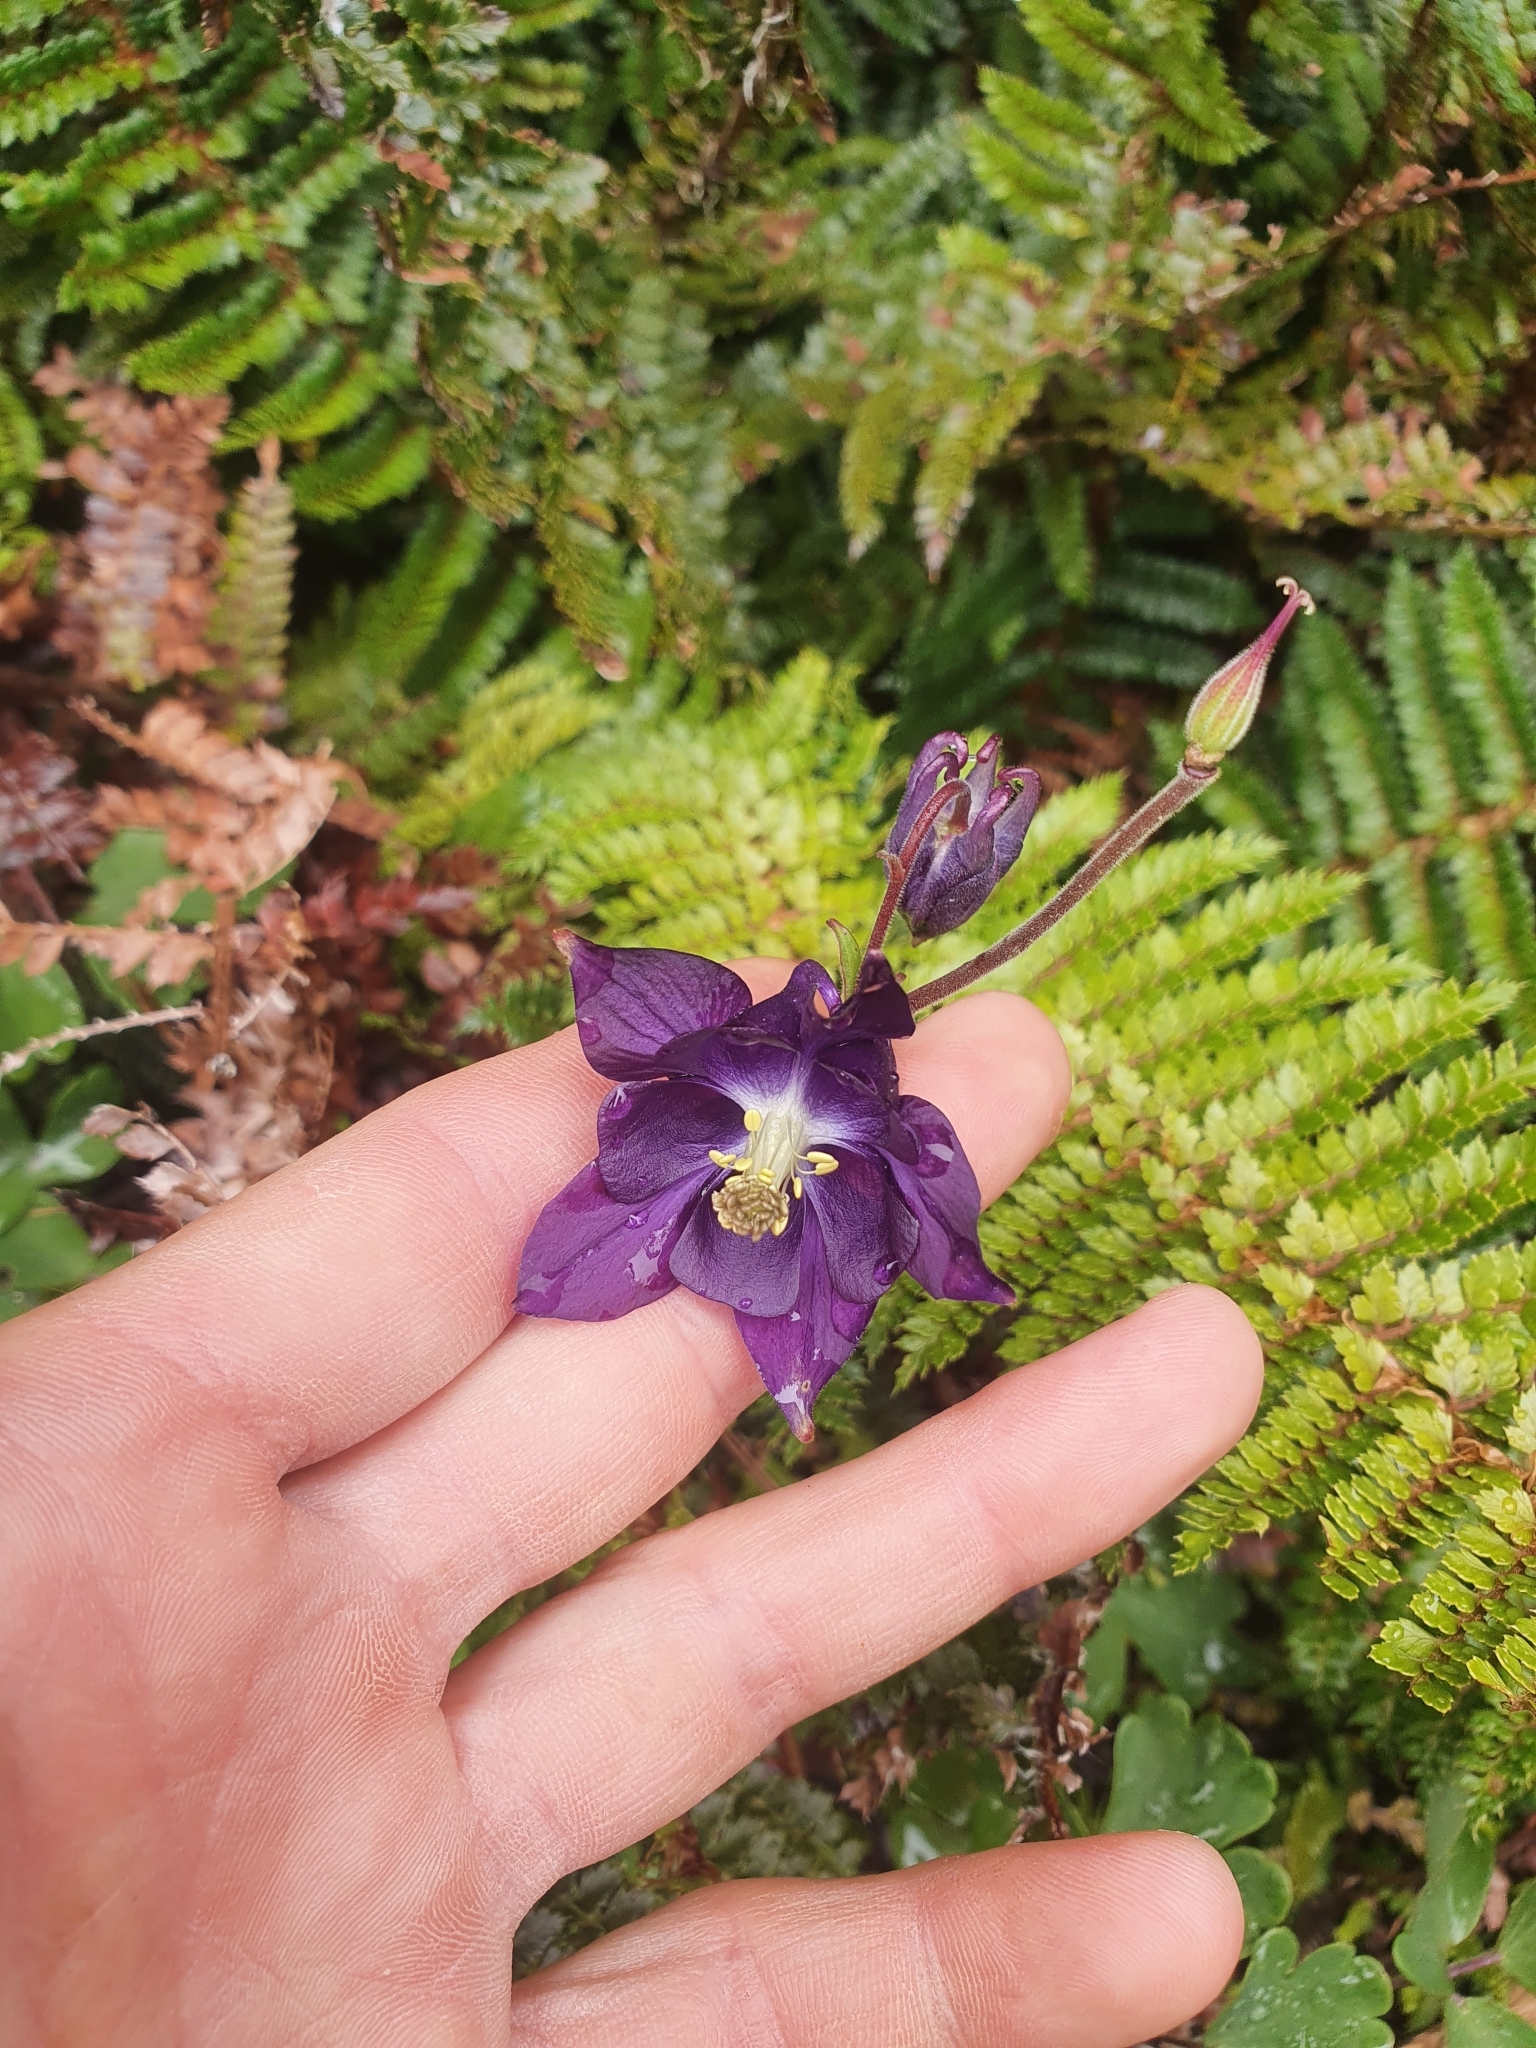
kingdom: Plantae
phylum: Tracheophyta
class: Magnoliopsida
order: Ranunculales
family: Ranunculaceae
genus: Aquilegia
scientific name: Aquilegia vulgaris
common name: Columbine
